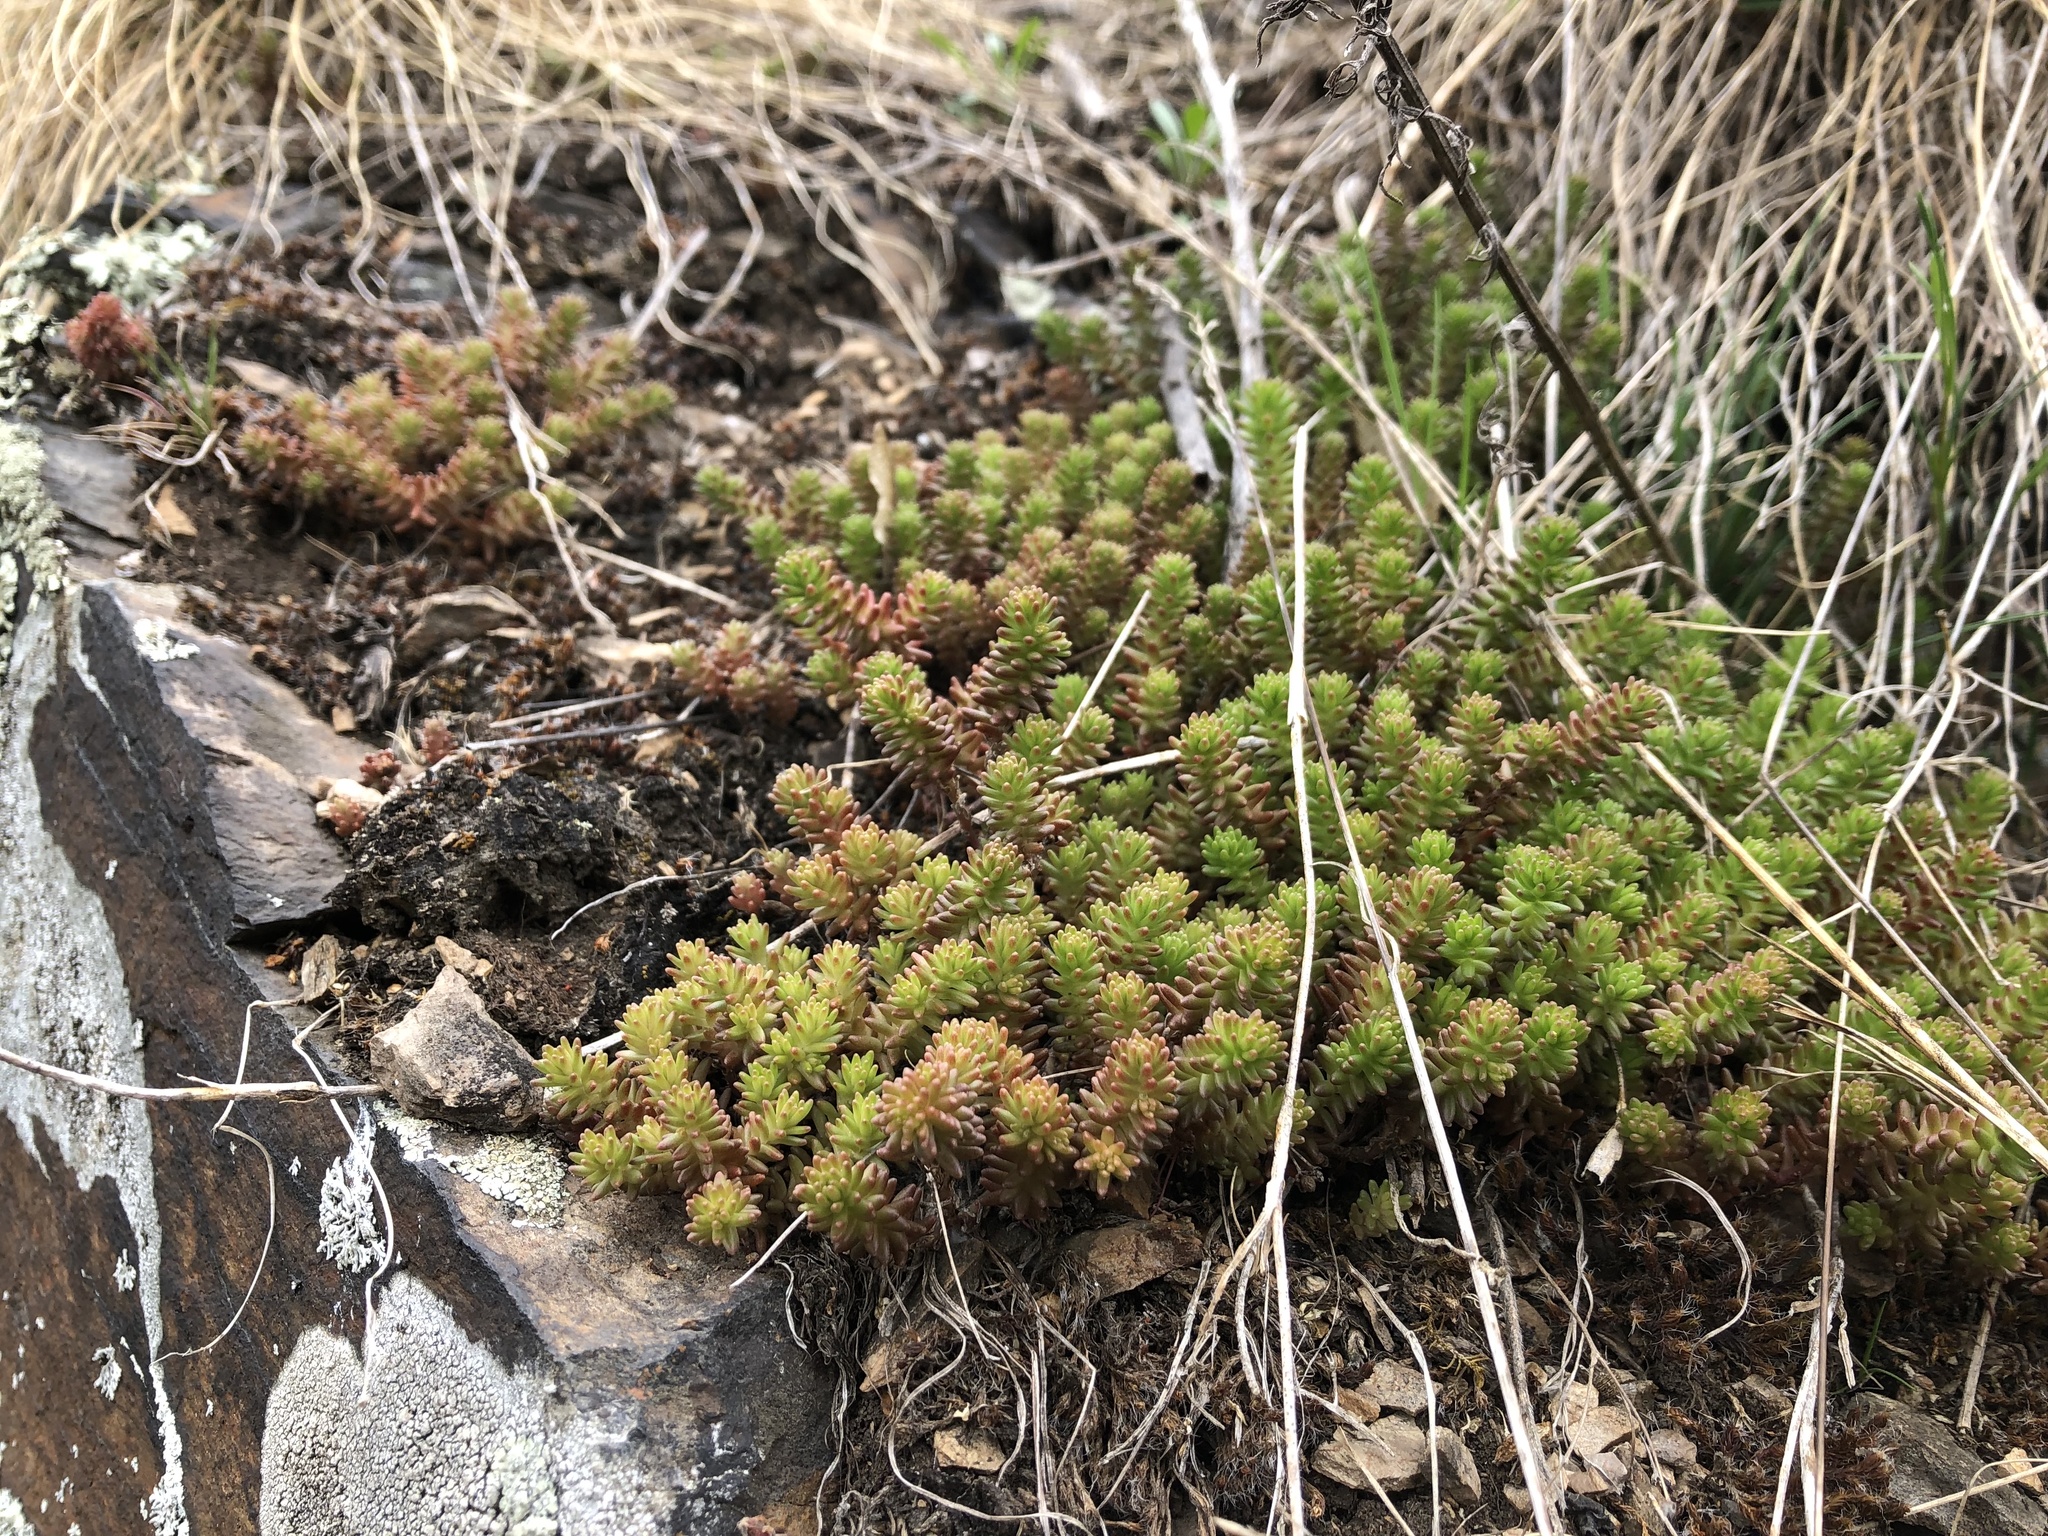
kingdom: Plantae
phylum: Tracheophyta
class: Magnoliopsida
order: Saxifragales
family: Crassulaceae
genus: Sedum
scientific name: Sedum sexangulare
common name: Tasteless stonecrop
